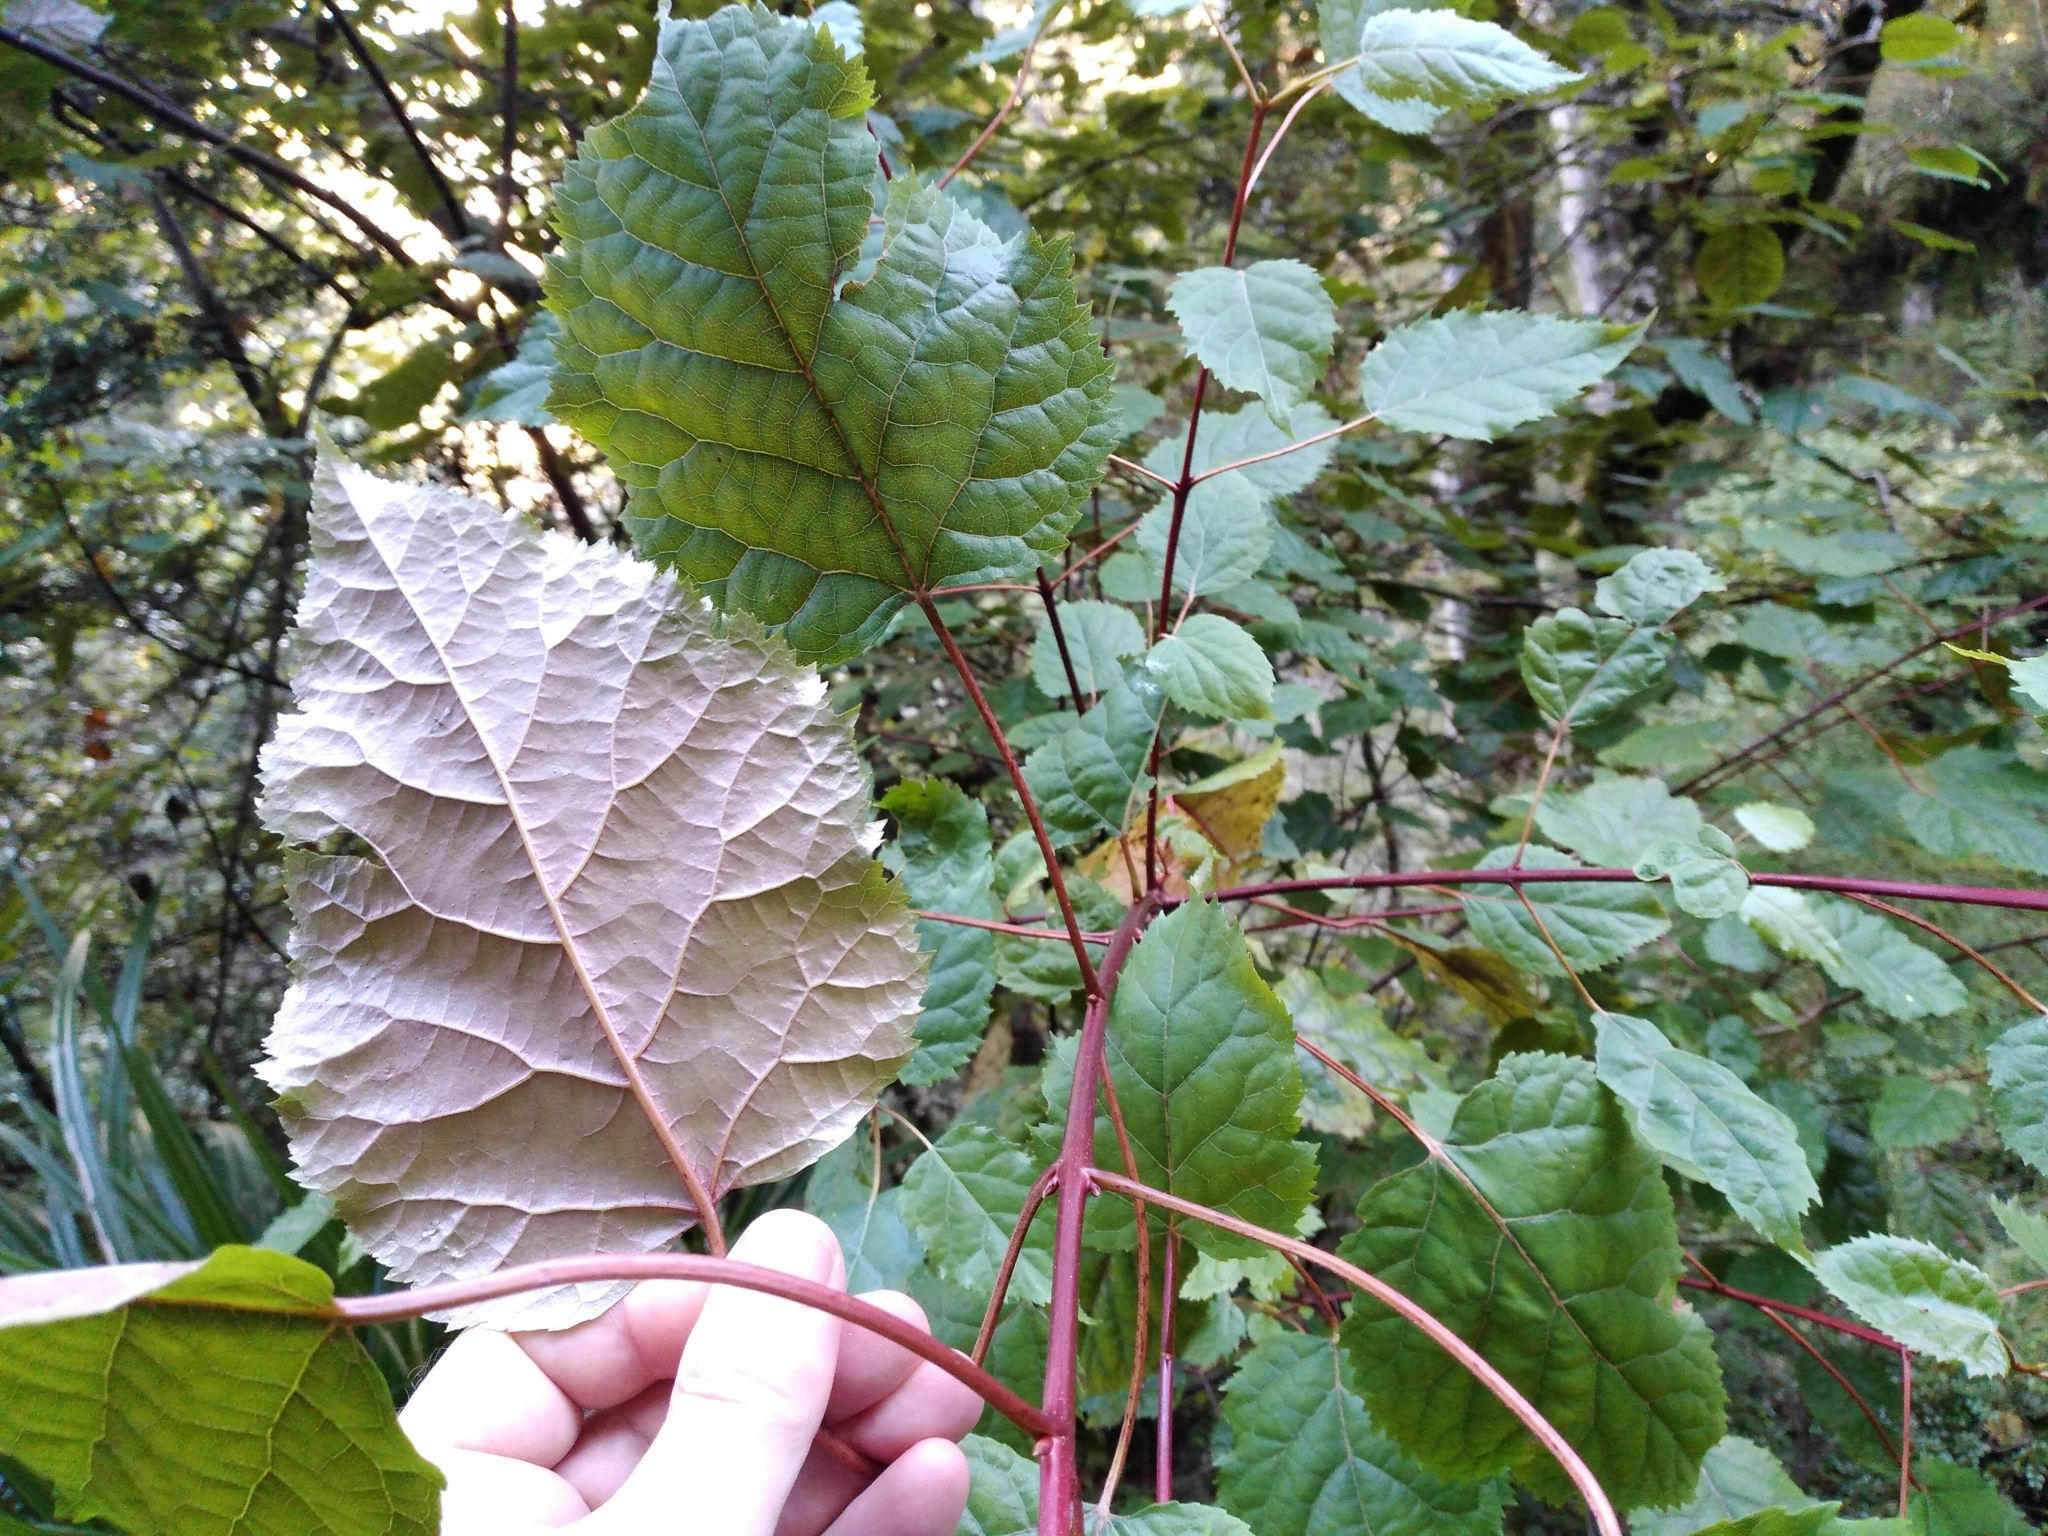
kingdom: Plantae
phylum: Tracheophyta
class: Magnoliopsida
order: Oxalidales
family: Elaeocarpaceae
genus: Aristotelia
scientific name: Aristotelia serrata
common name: New zealand wineberry
